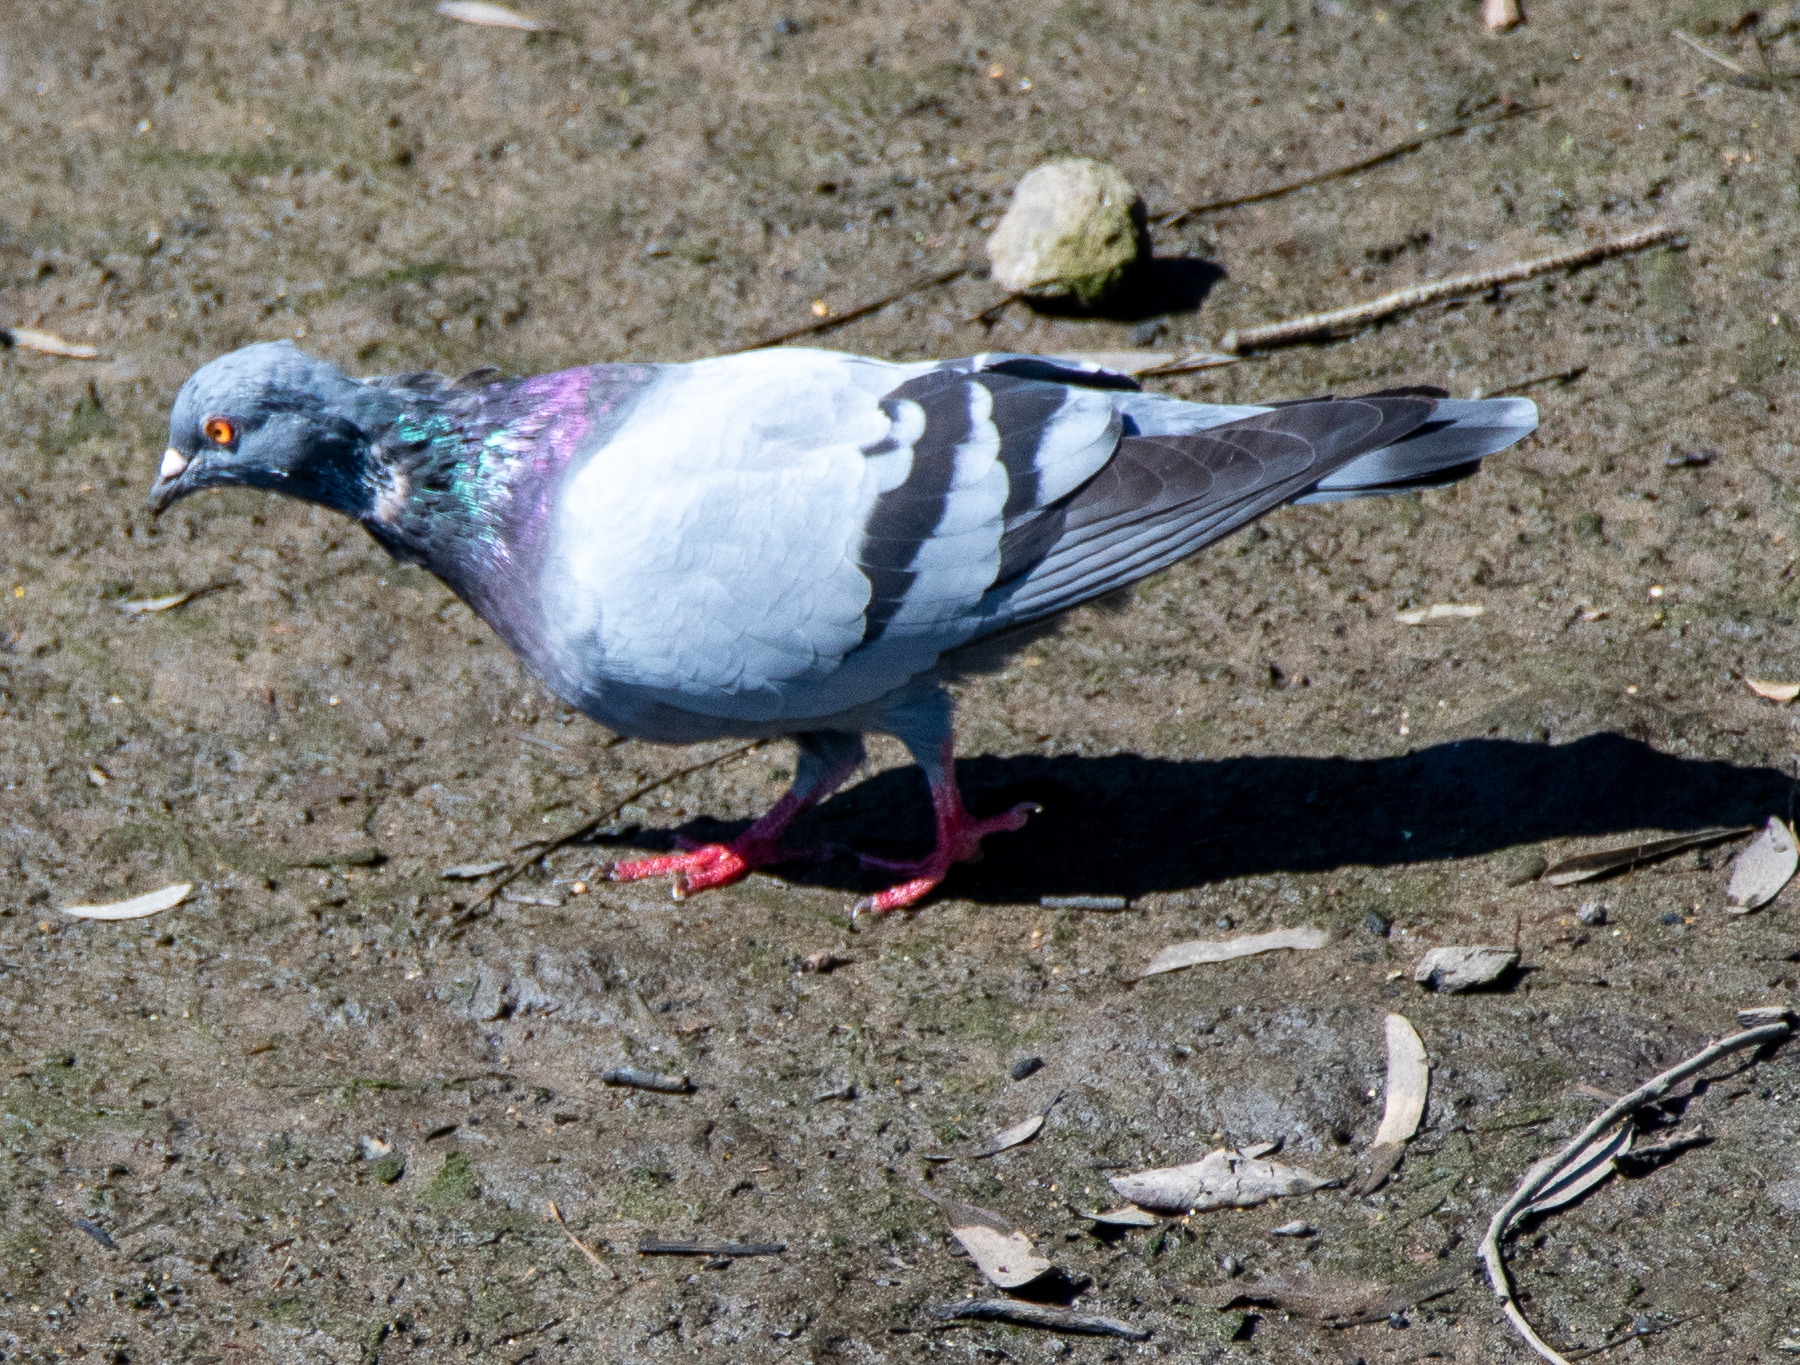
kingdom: Animalia
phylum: Chordata
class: Aves
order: Columbiformes
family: Columbidae
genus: Columba
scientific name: Columba livia
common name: Rock pigeon
